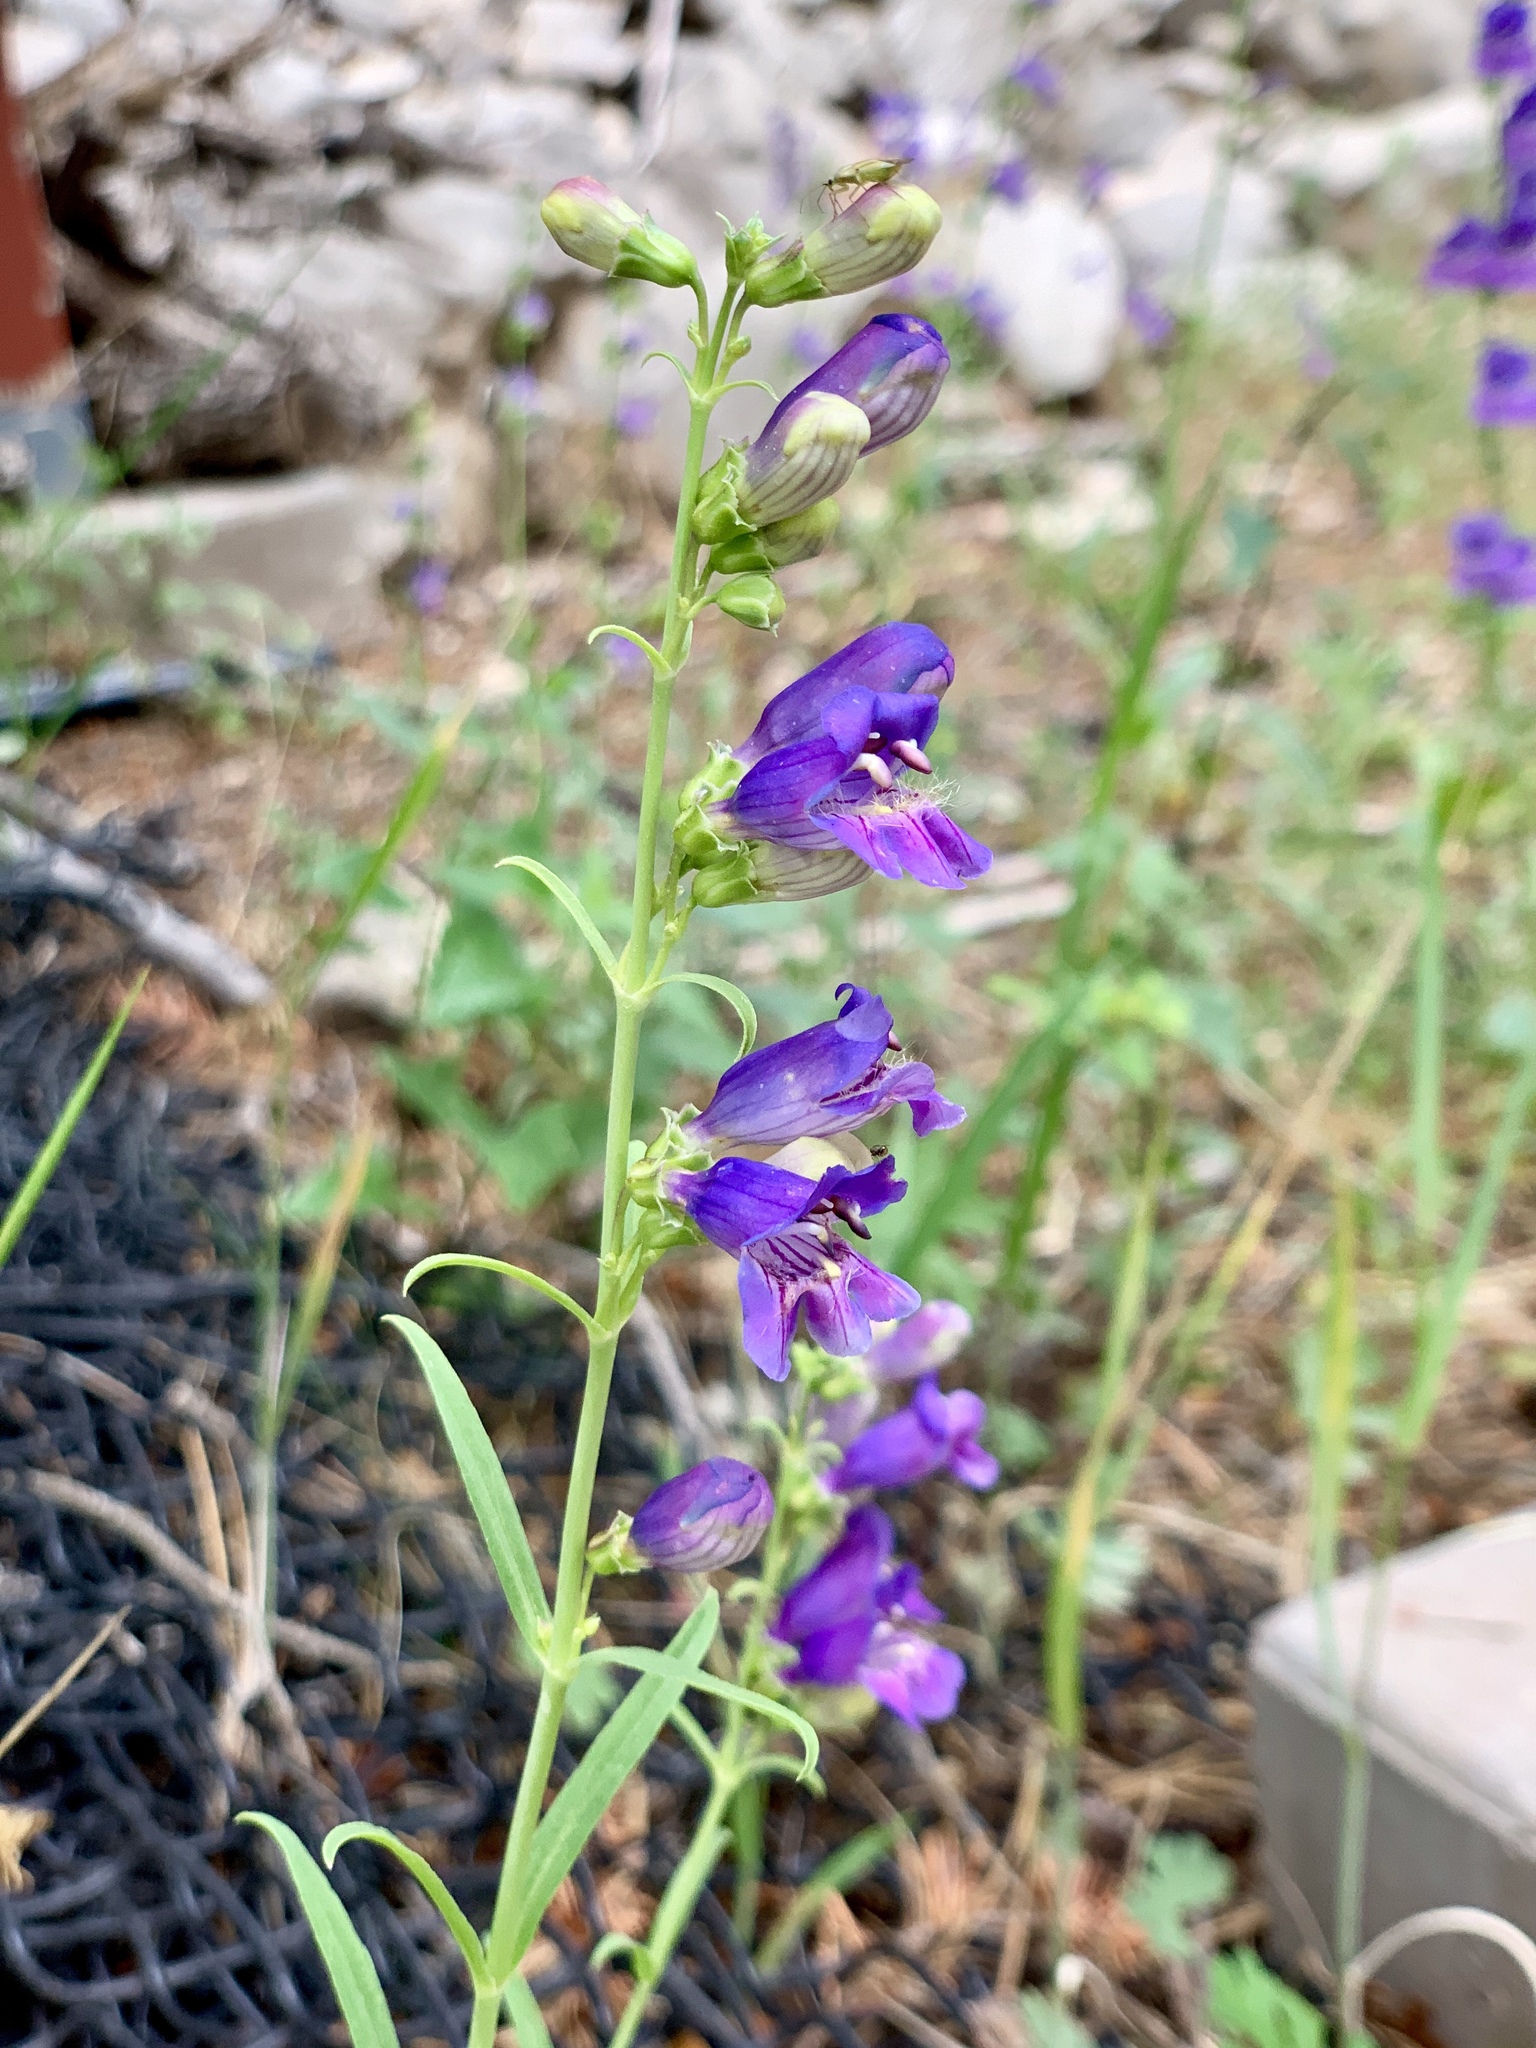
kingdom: Plantae
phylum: Tracheophyta
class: Magnoliopsida
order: Lamiales
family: Plantaginaceae
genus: Penstemon
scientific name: Penstemon neomexicanus
